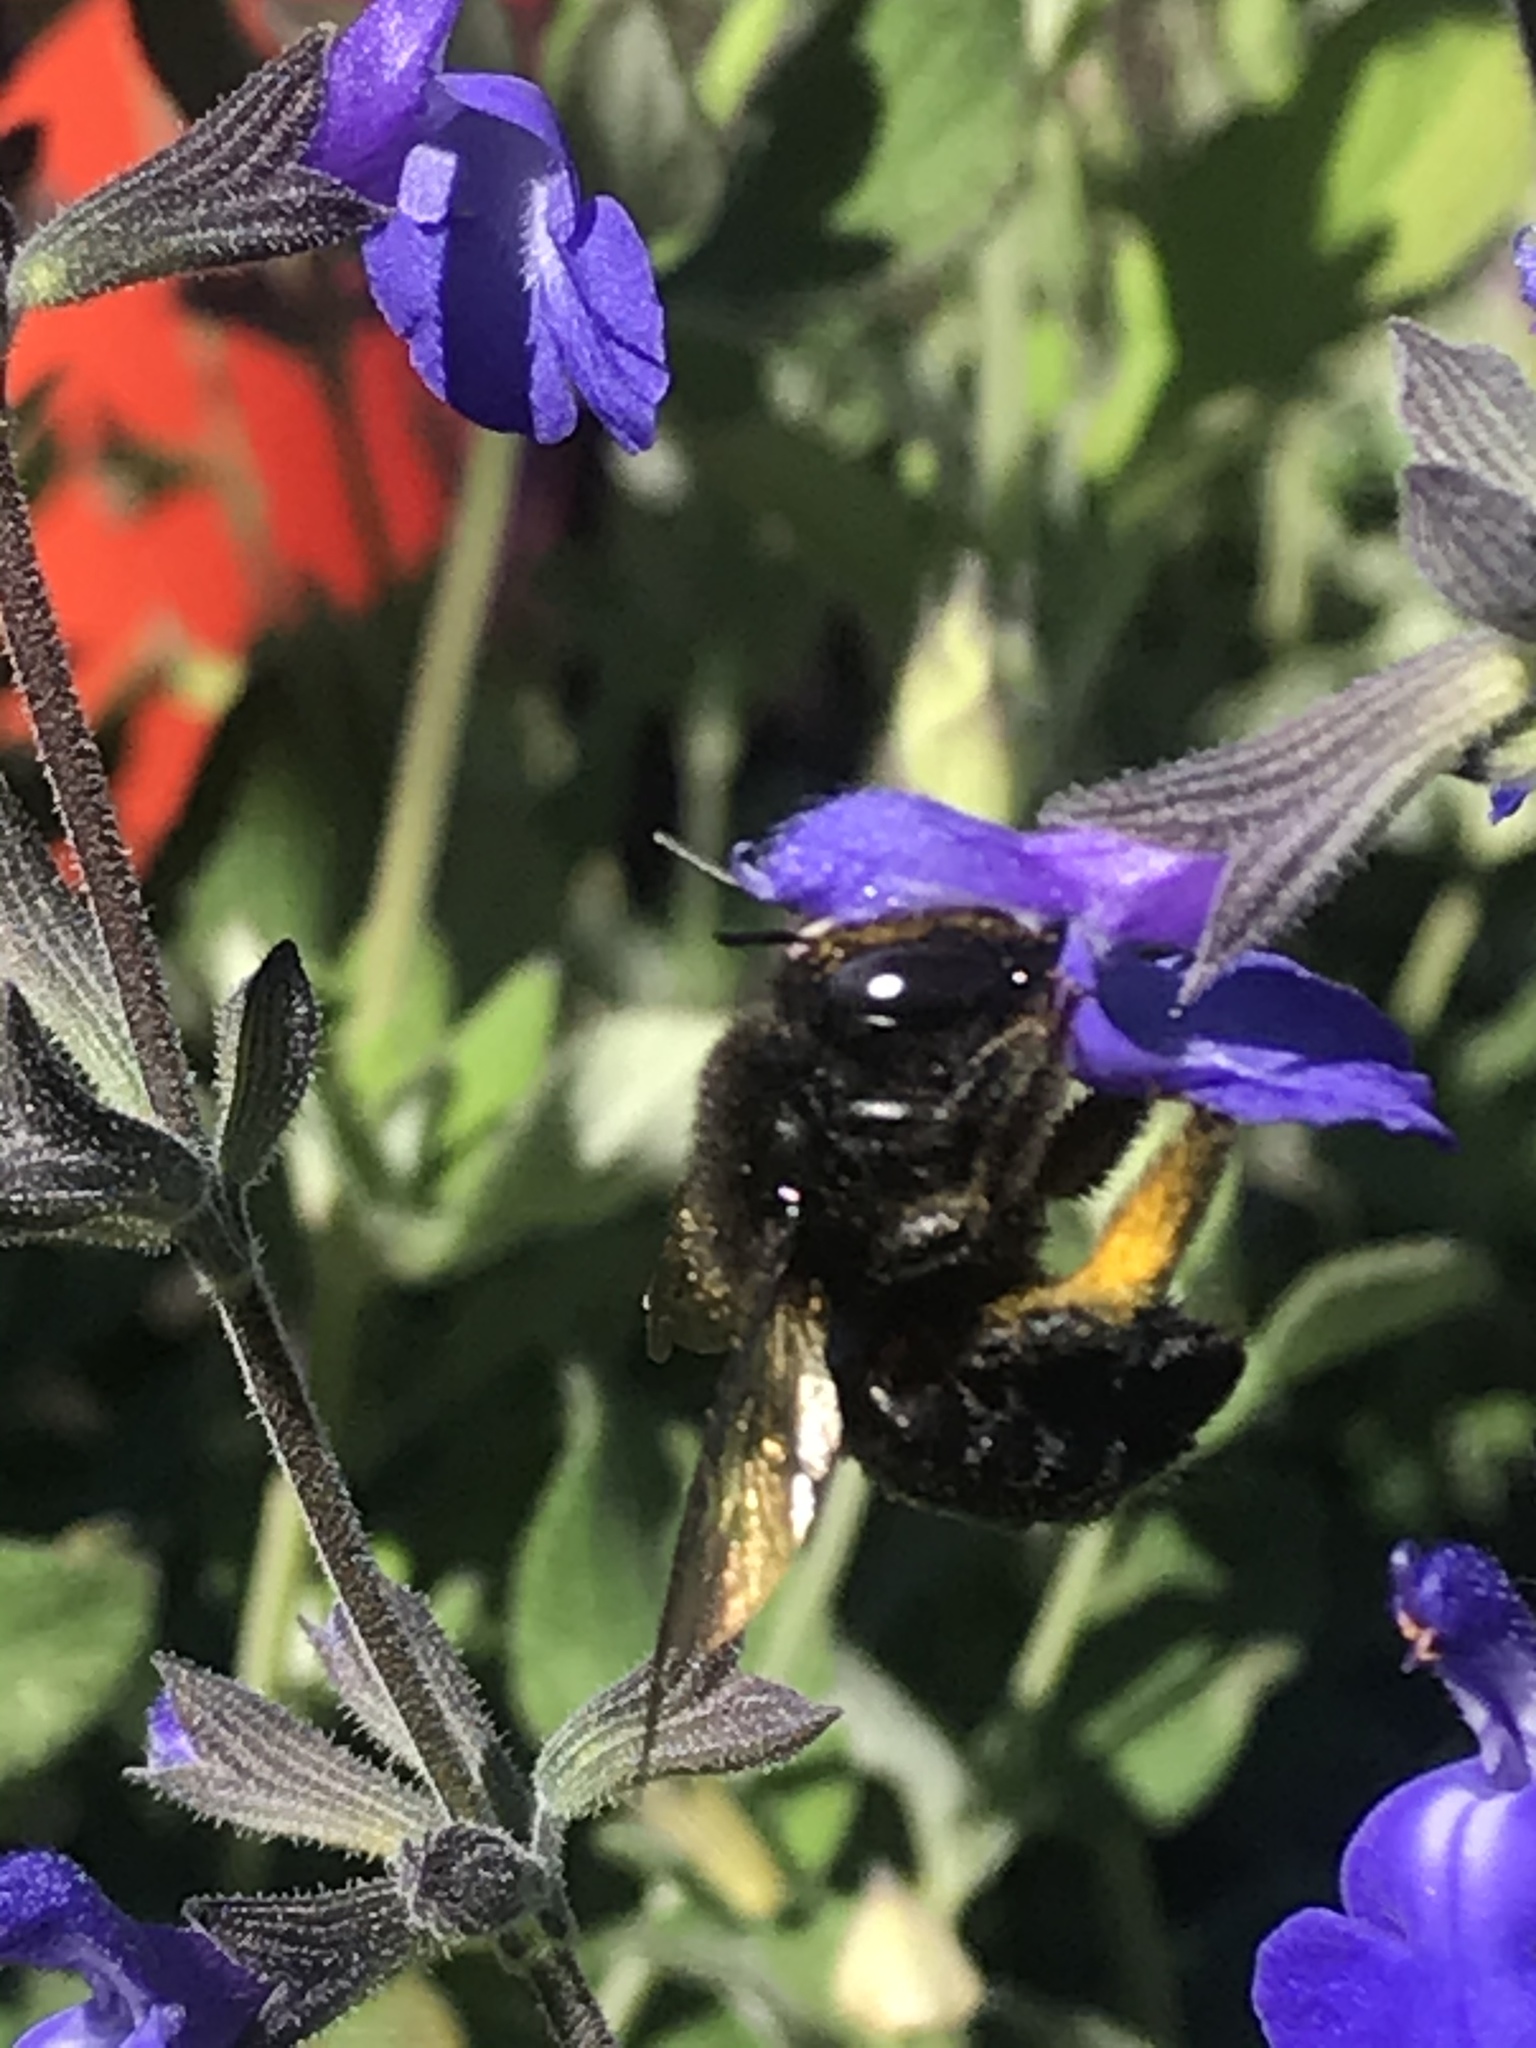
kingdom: Animalia
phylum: Arthropoda
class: Insecta
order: Hymenoptera
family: Apidae
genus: Xylocopa
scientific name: Xylocopa tabaniformis
